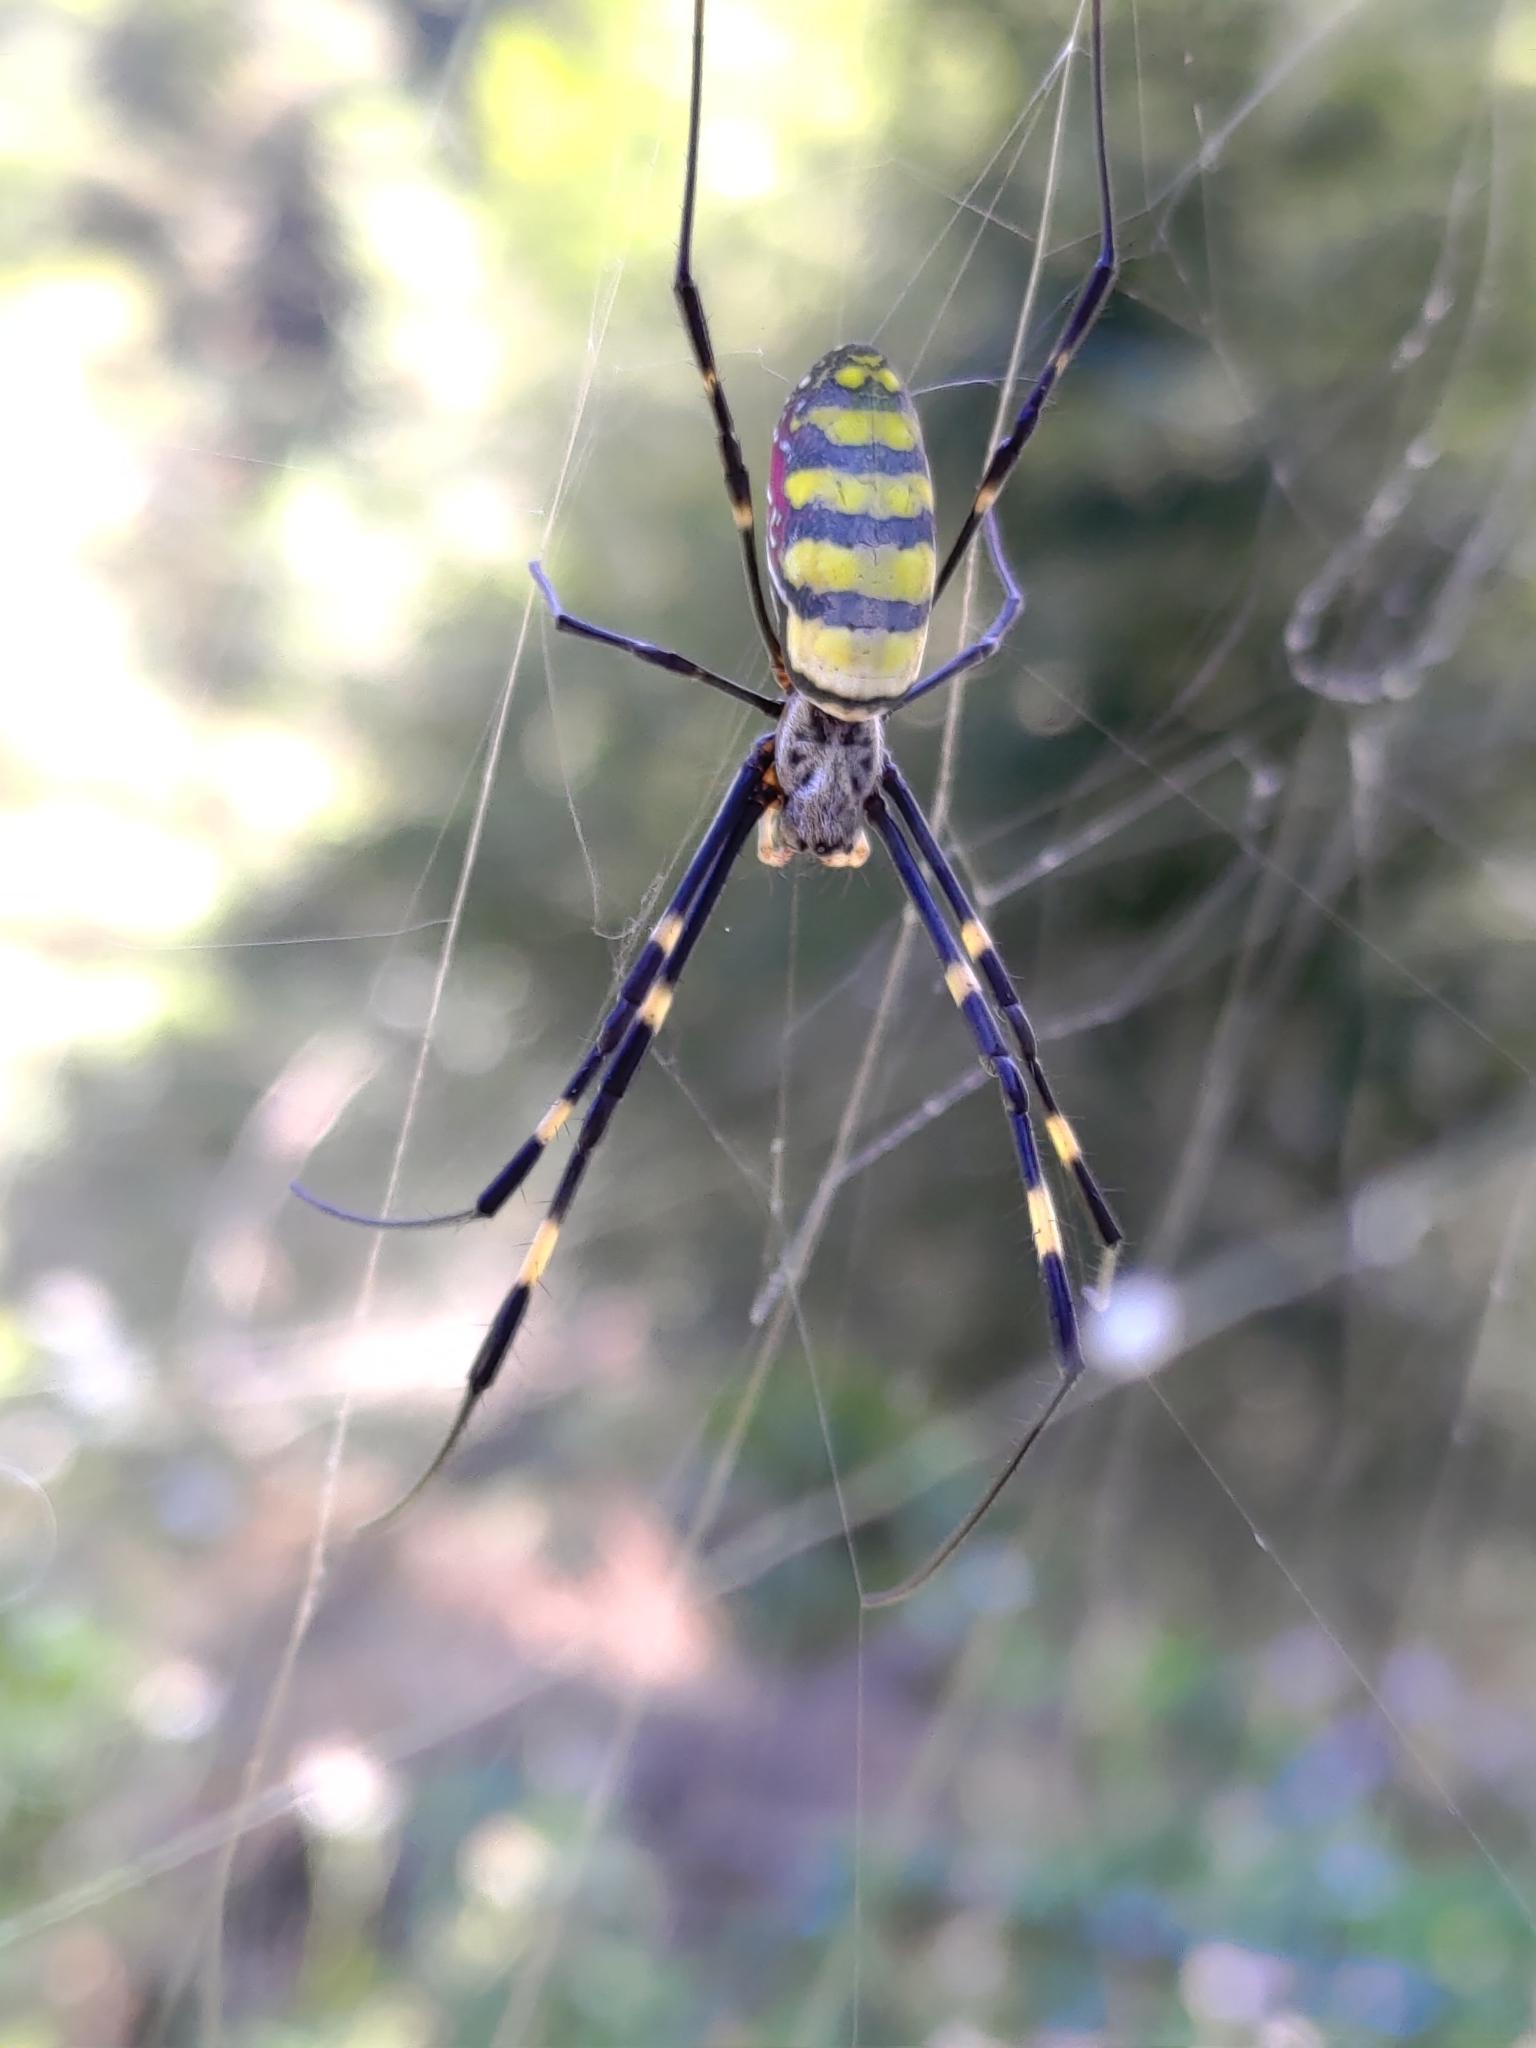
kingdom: Animalia
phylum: Arthropoda
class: Arachnida
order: Araneae
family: Araneidae
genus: Trichonephila
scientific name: Trichonephila clavata
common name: Jorō spider
